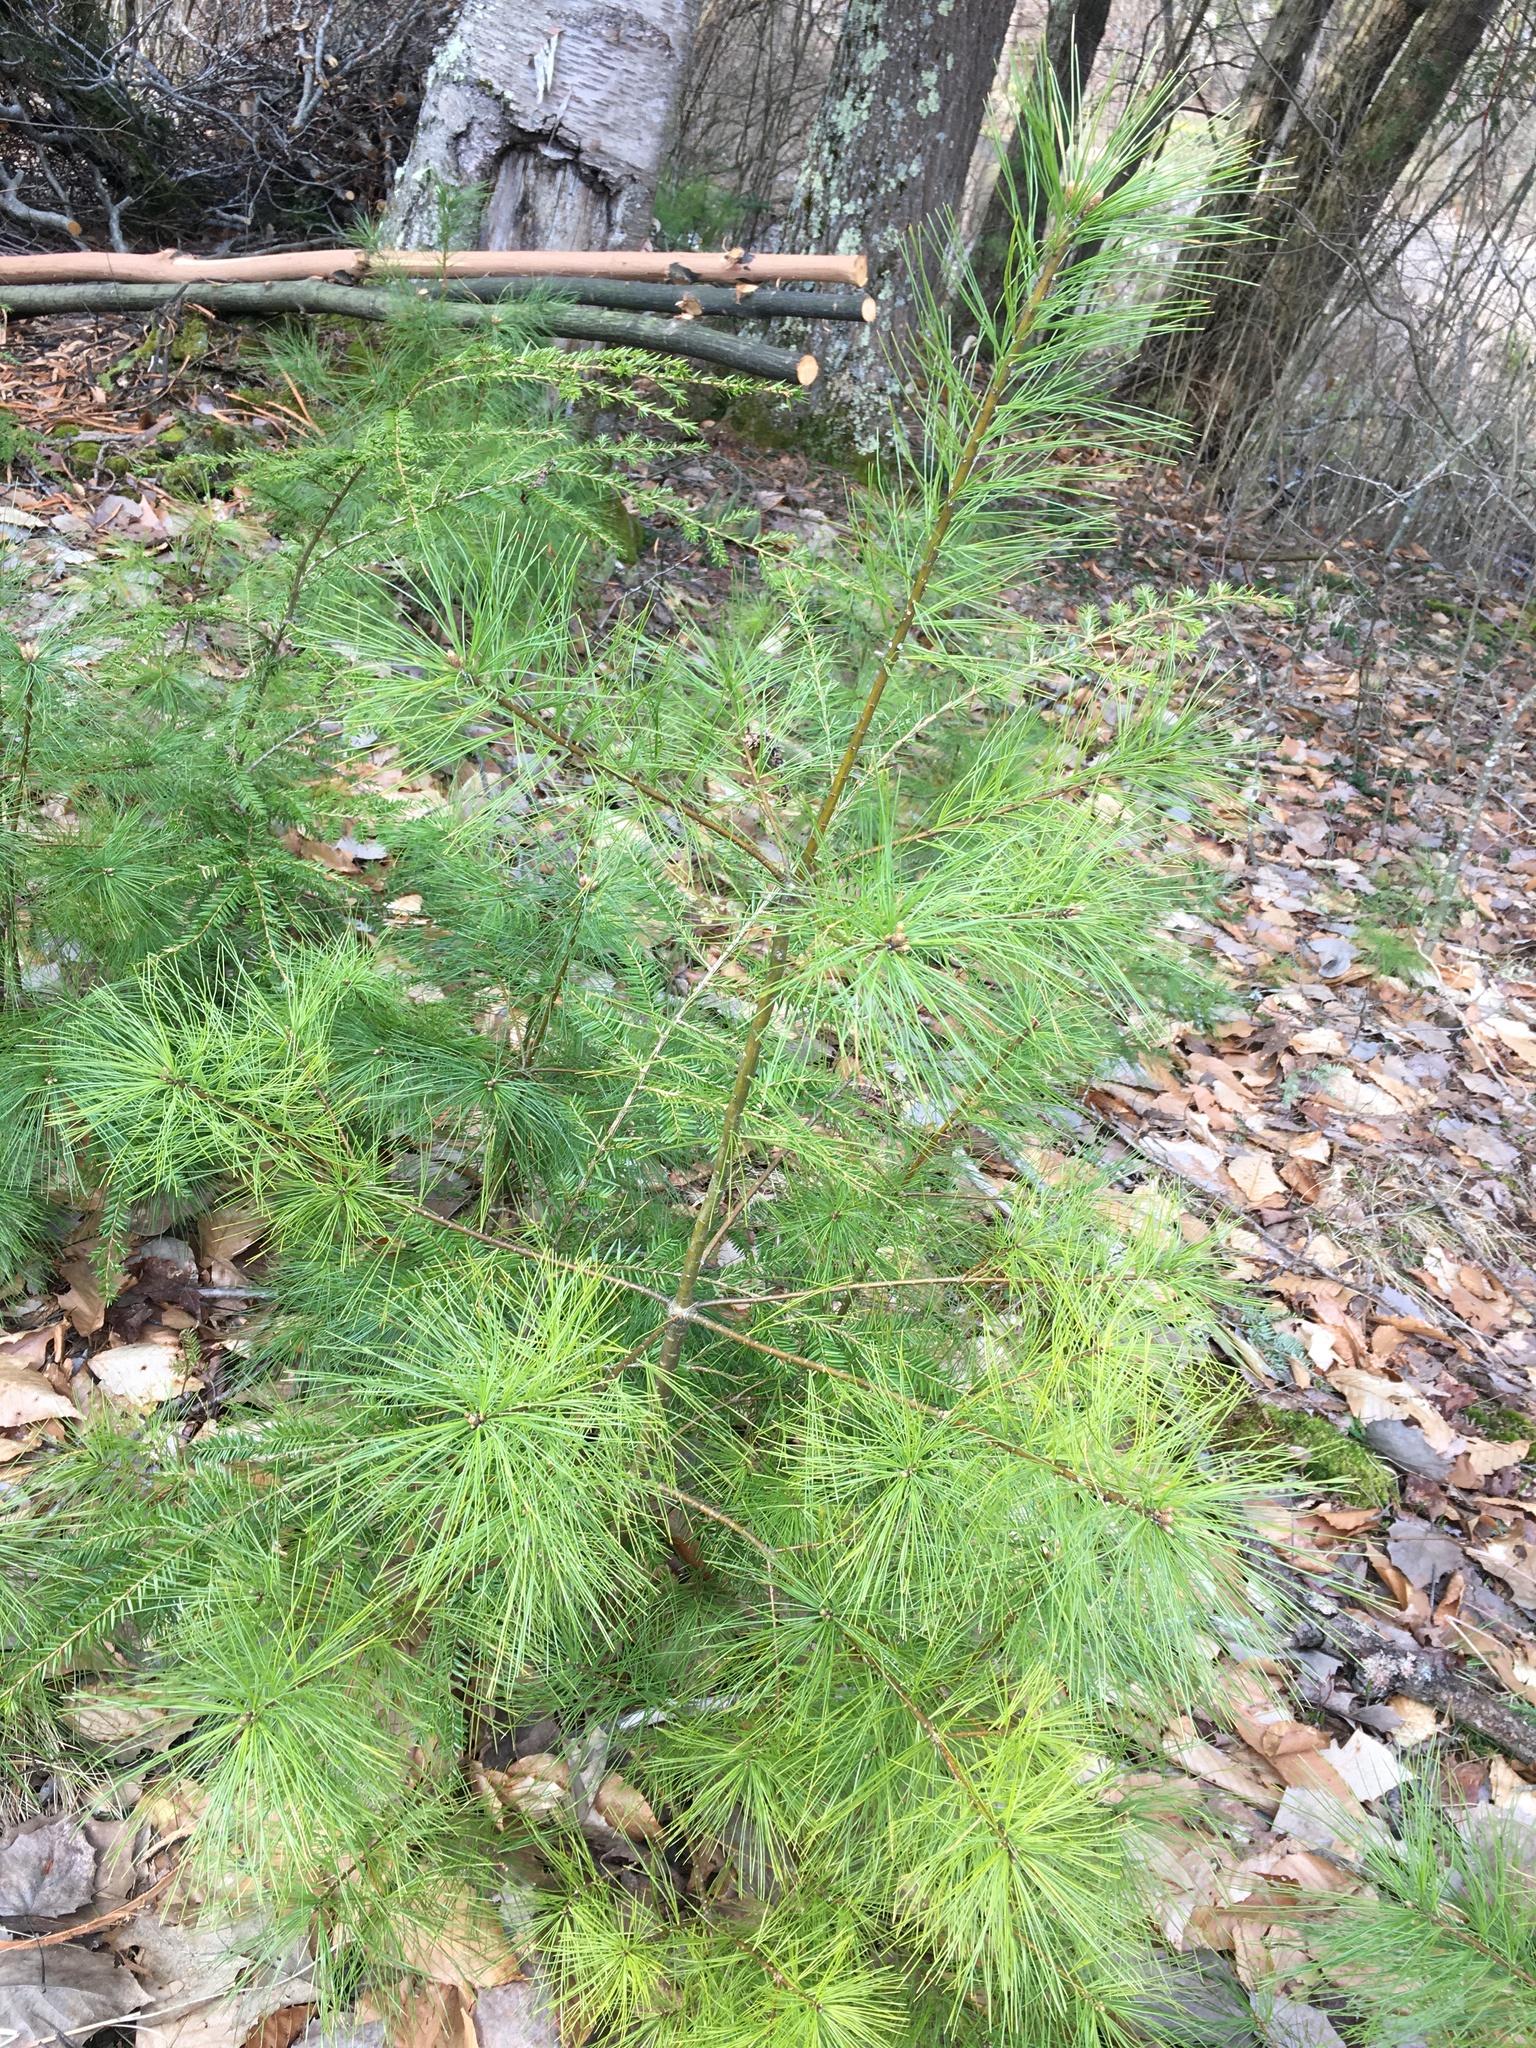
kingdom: Plantae
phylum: Tracheophyta
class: Pinopsida
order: Pinales
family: Pinaceae
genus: Pinus
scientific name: Pinus strobus
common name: Weymouth pine
